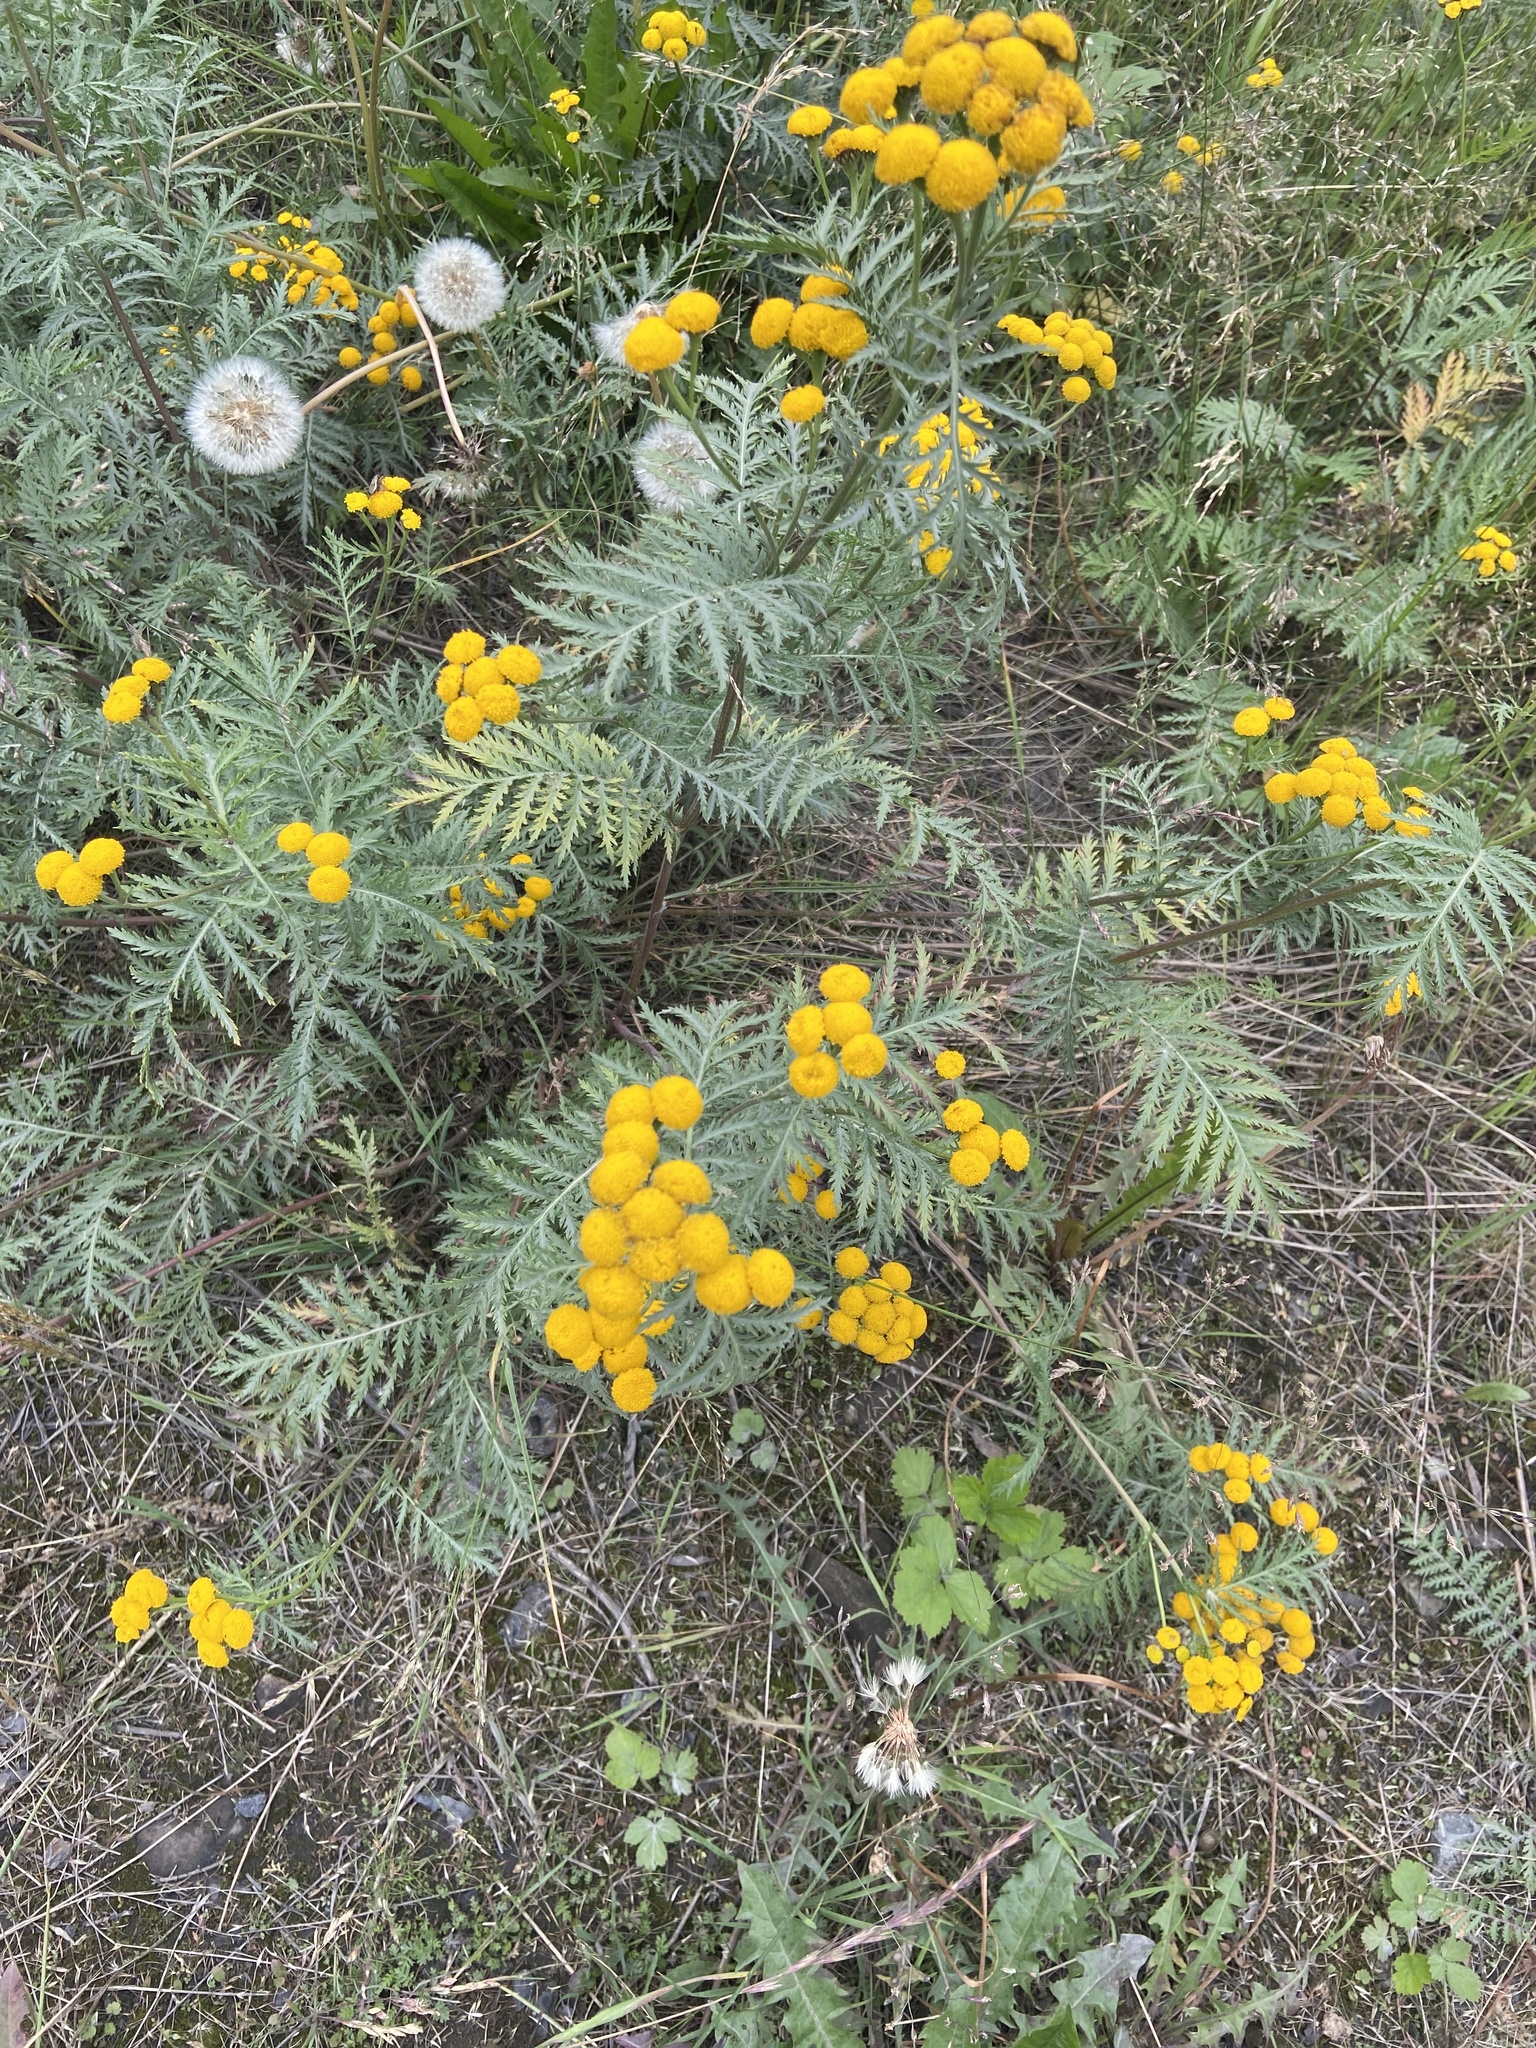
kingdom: Plantae
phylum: Tracheophyta
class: Magnoliopsida
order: Asterales
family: Asteraceae
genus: Tanacetum
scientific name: Tanacetum vulgare
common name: Common tansy
